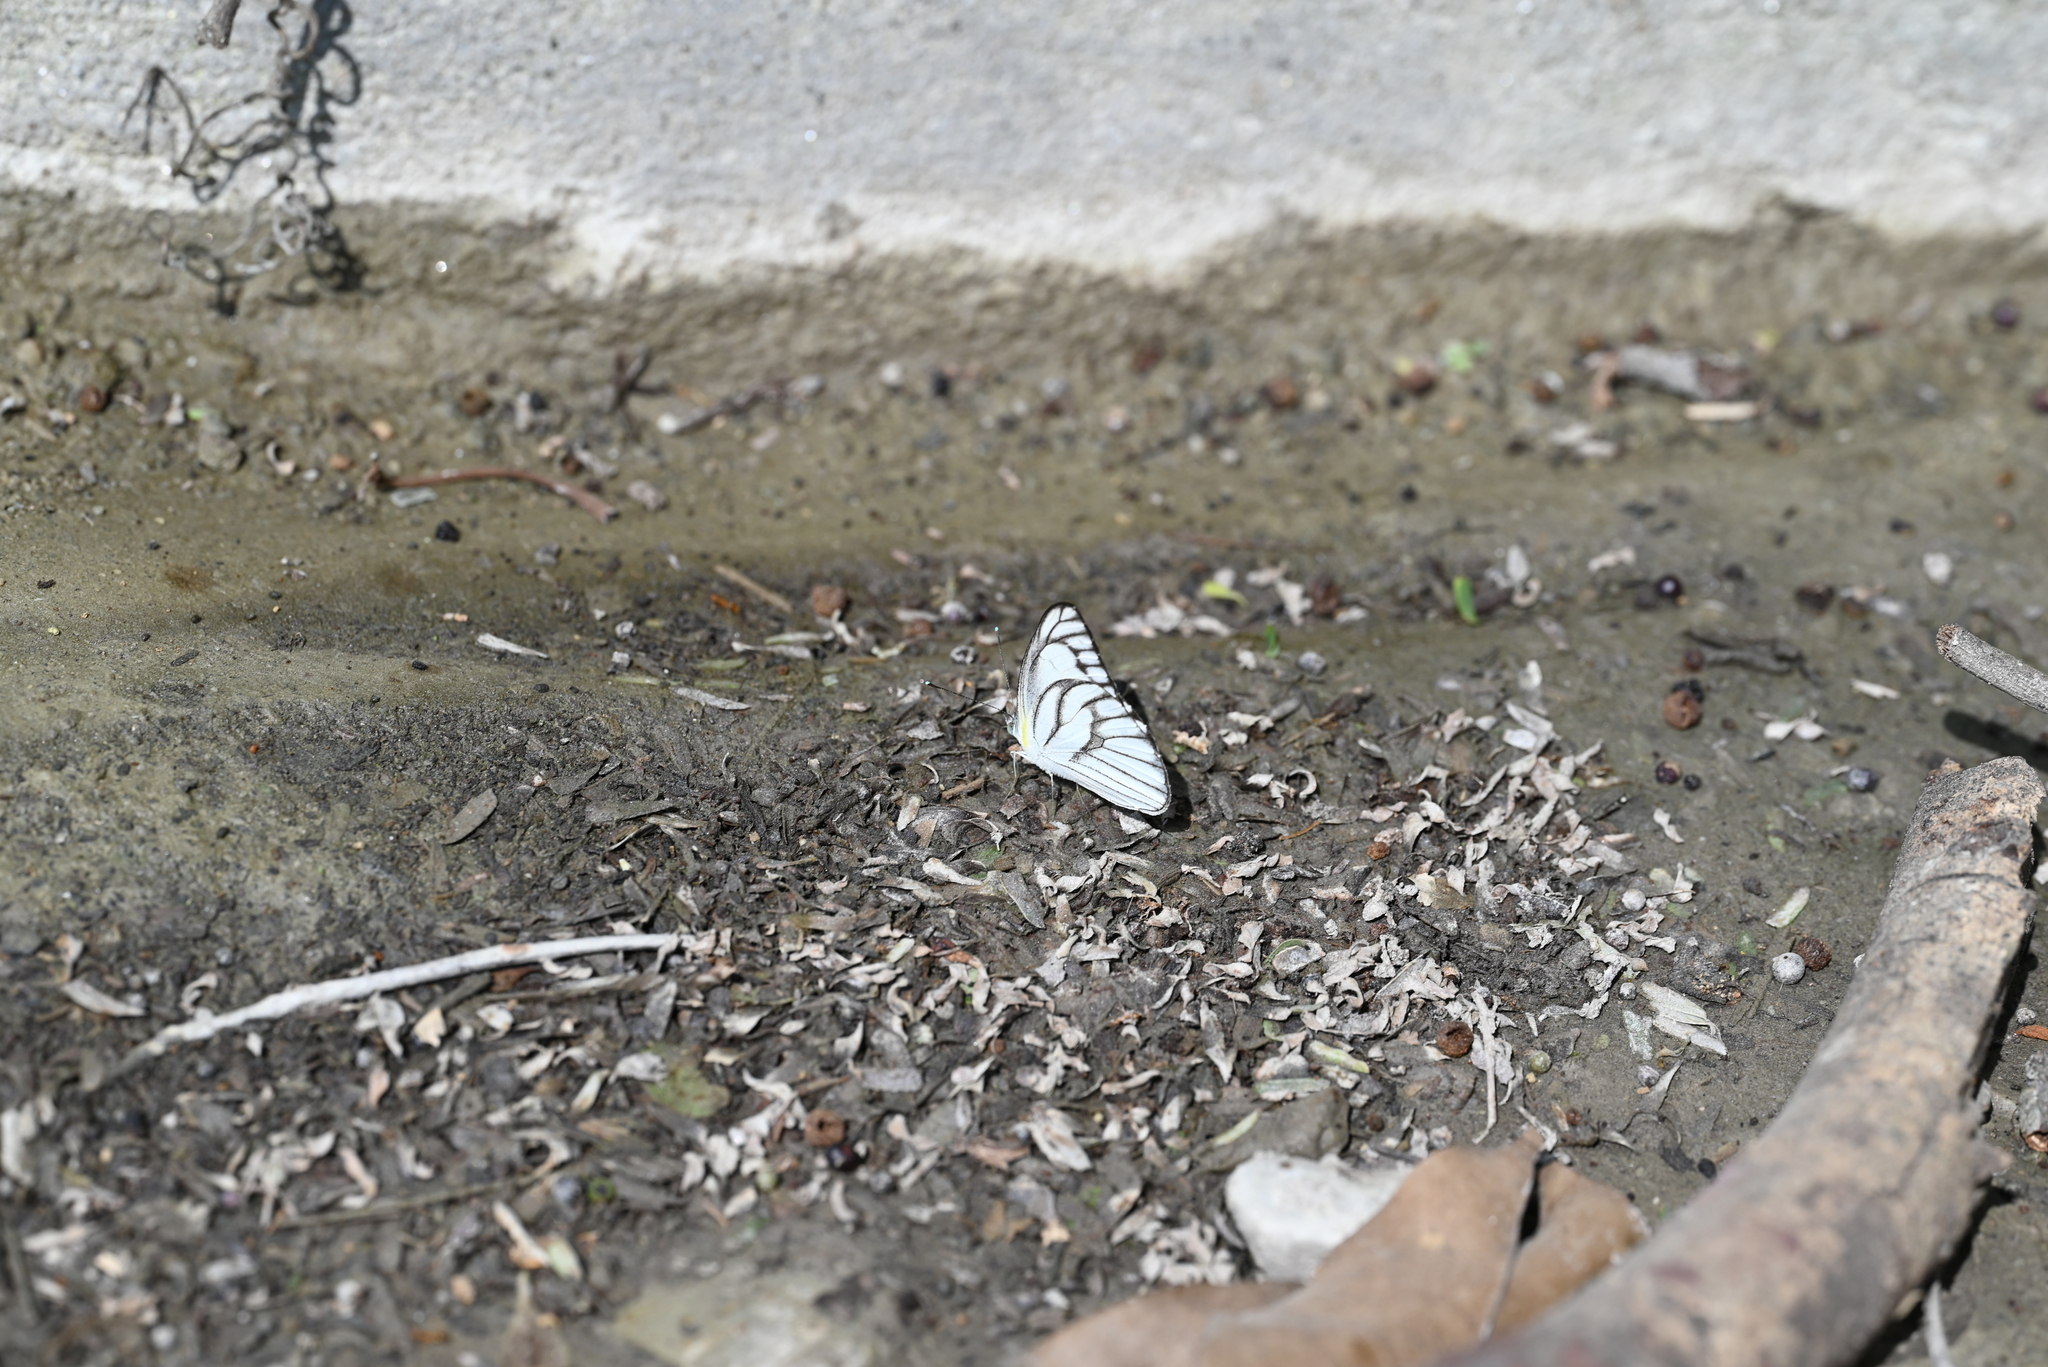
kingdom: Animalia
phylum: Arthropoda
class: Insecta
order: Lepidoptera
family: Pieridae
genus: Appias
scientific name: Appias libythea
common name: Striped albatross
